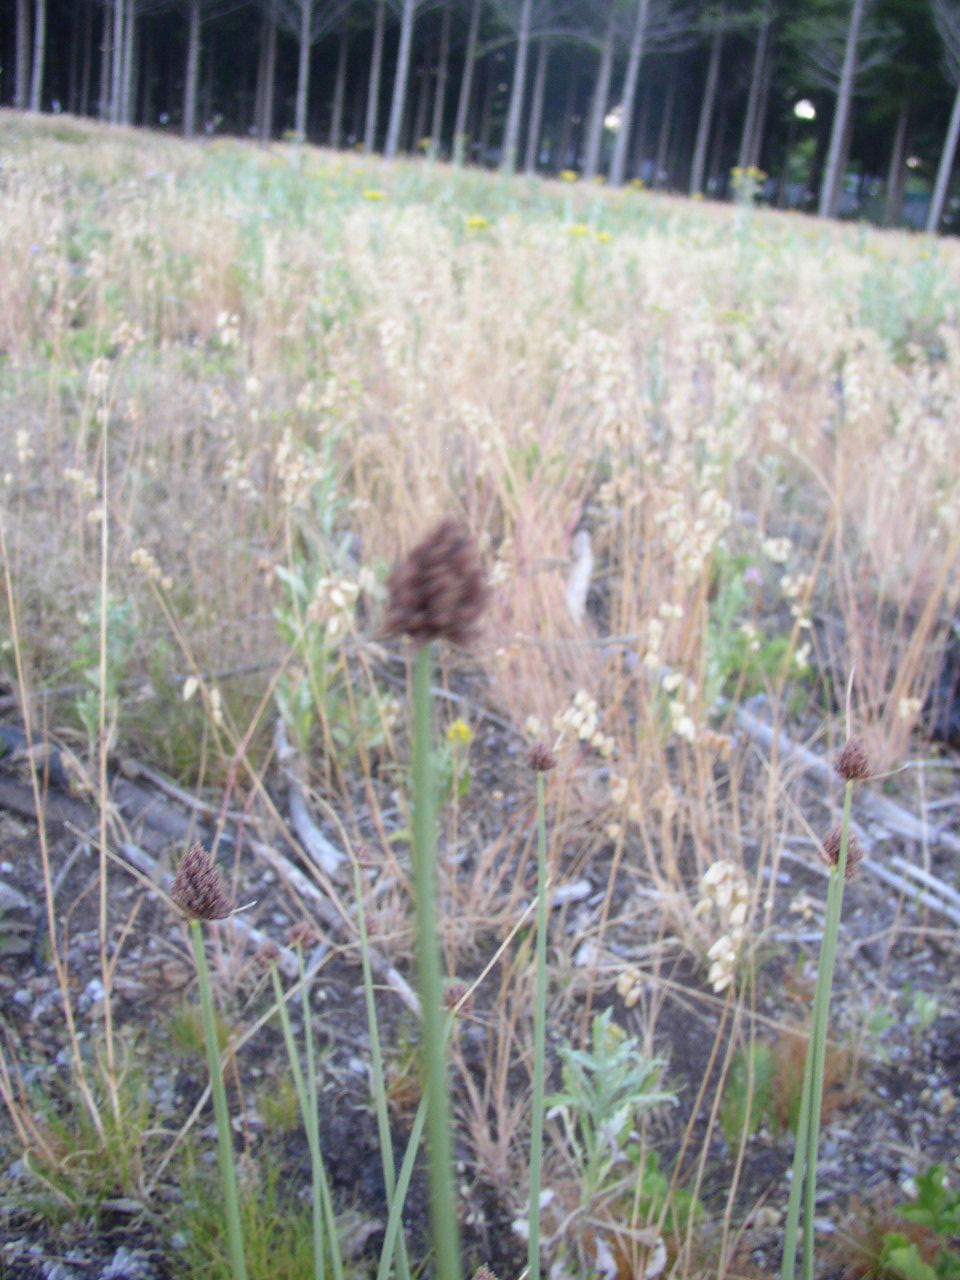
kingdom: Plantae
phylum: Tracheophyta
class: Liliopsida
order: Poales
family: Cyperaceae
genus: Ficinia
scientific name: Ficinia brevifolia
